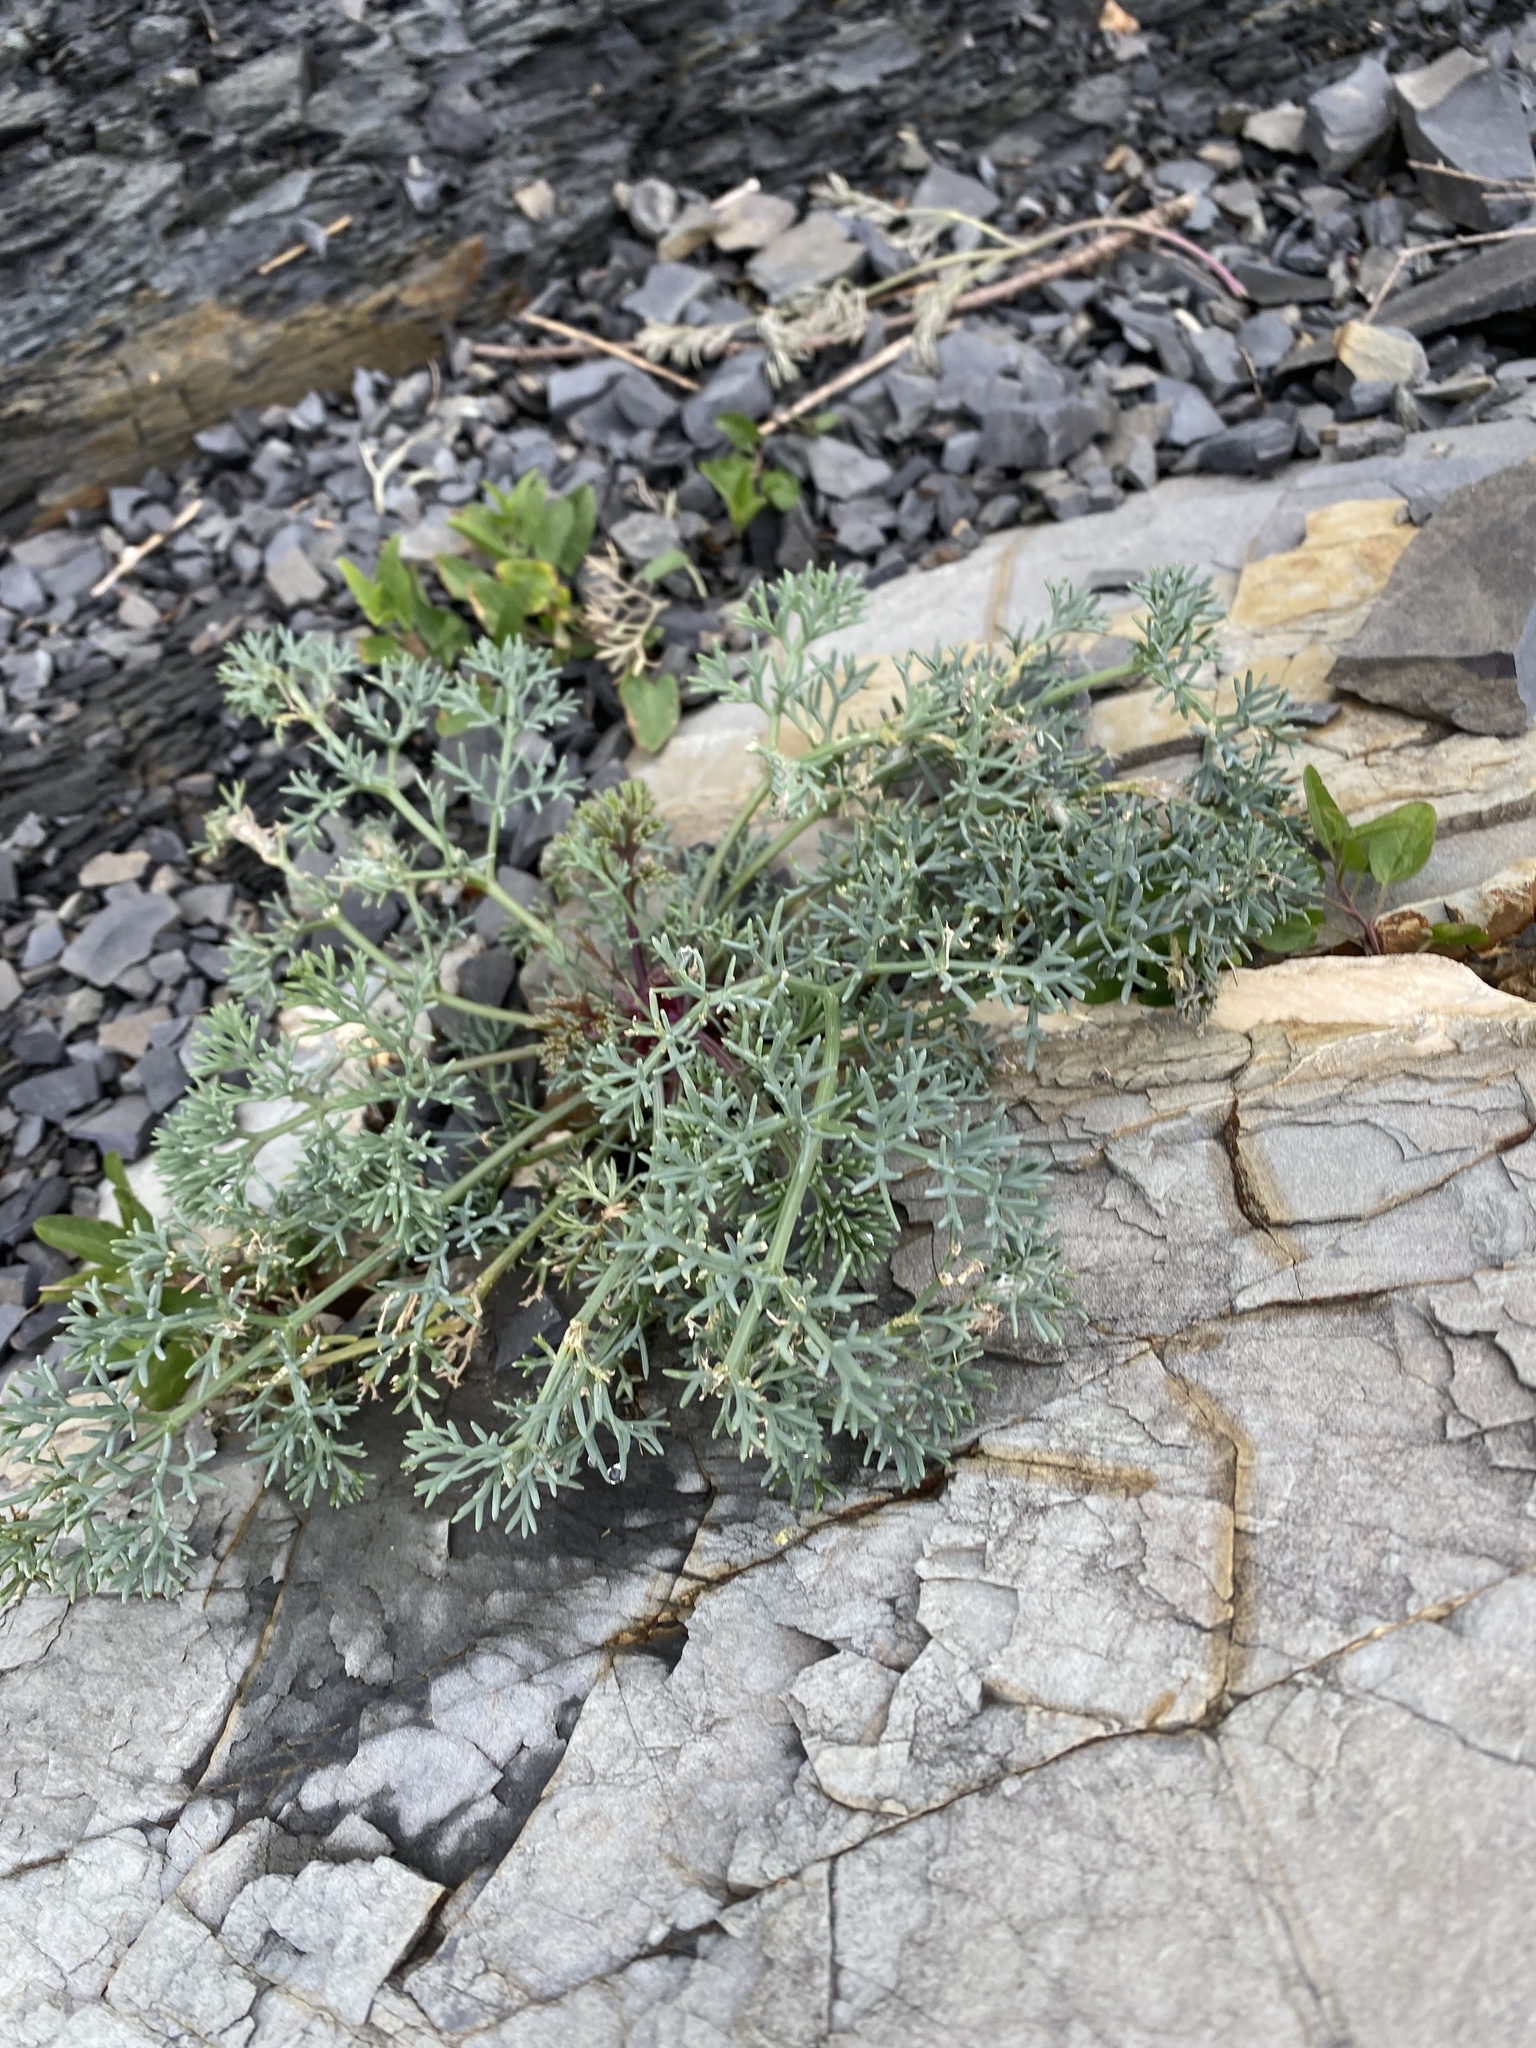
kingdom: Plantae
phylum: Tracheophyta
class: Magnoliopsida
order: Apiales
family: Apiaceae
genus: Seseli
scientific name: Seseli ponticum
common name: Pontic seseli
